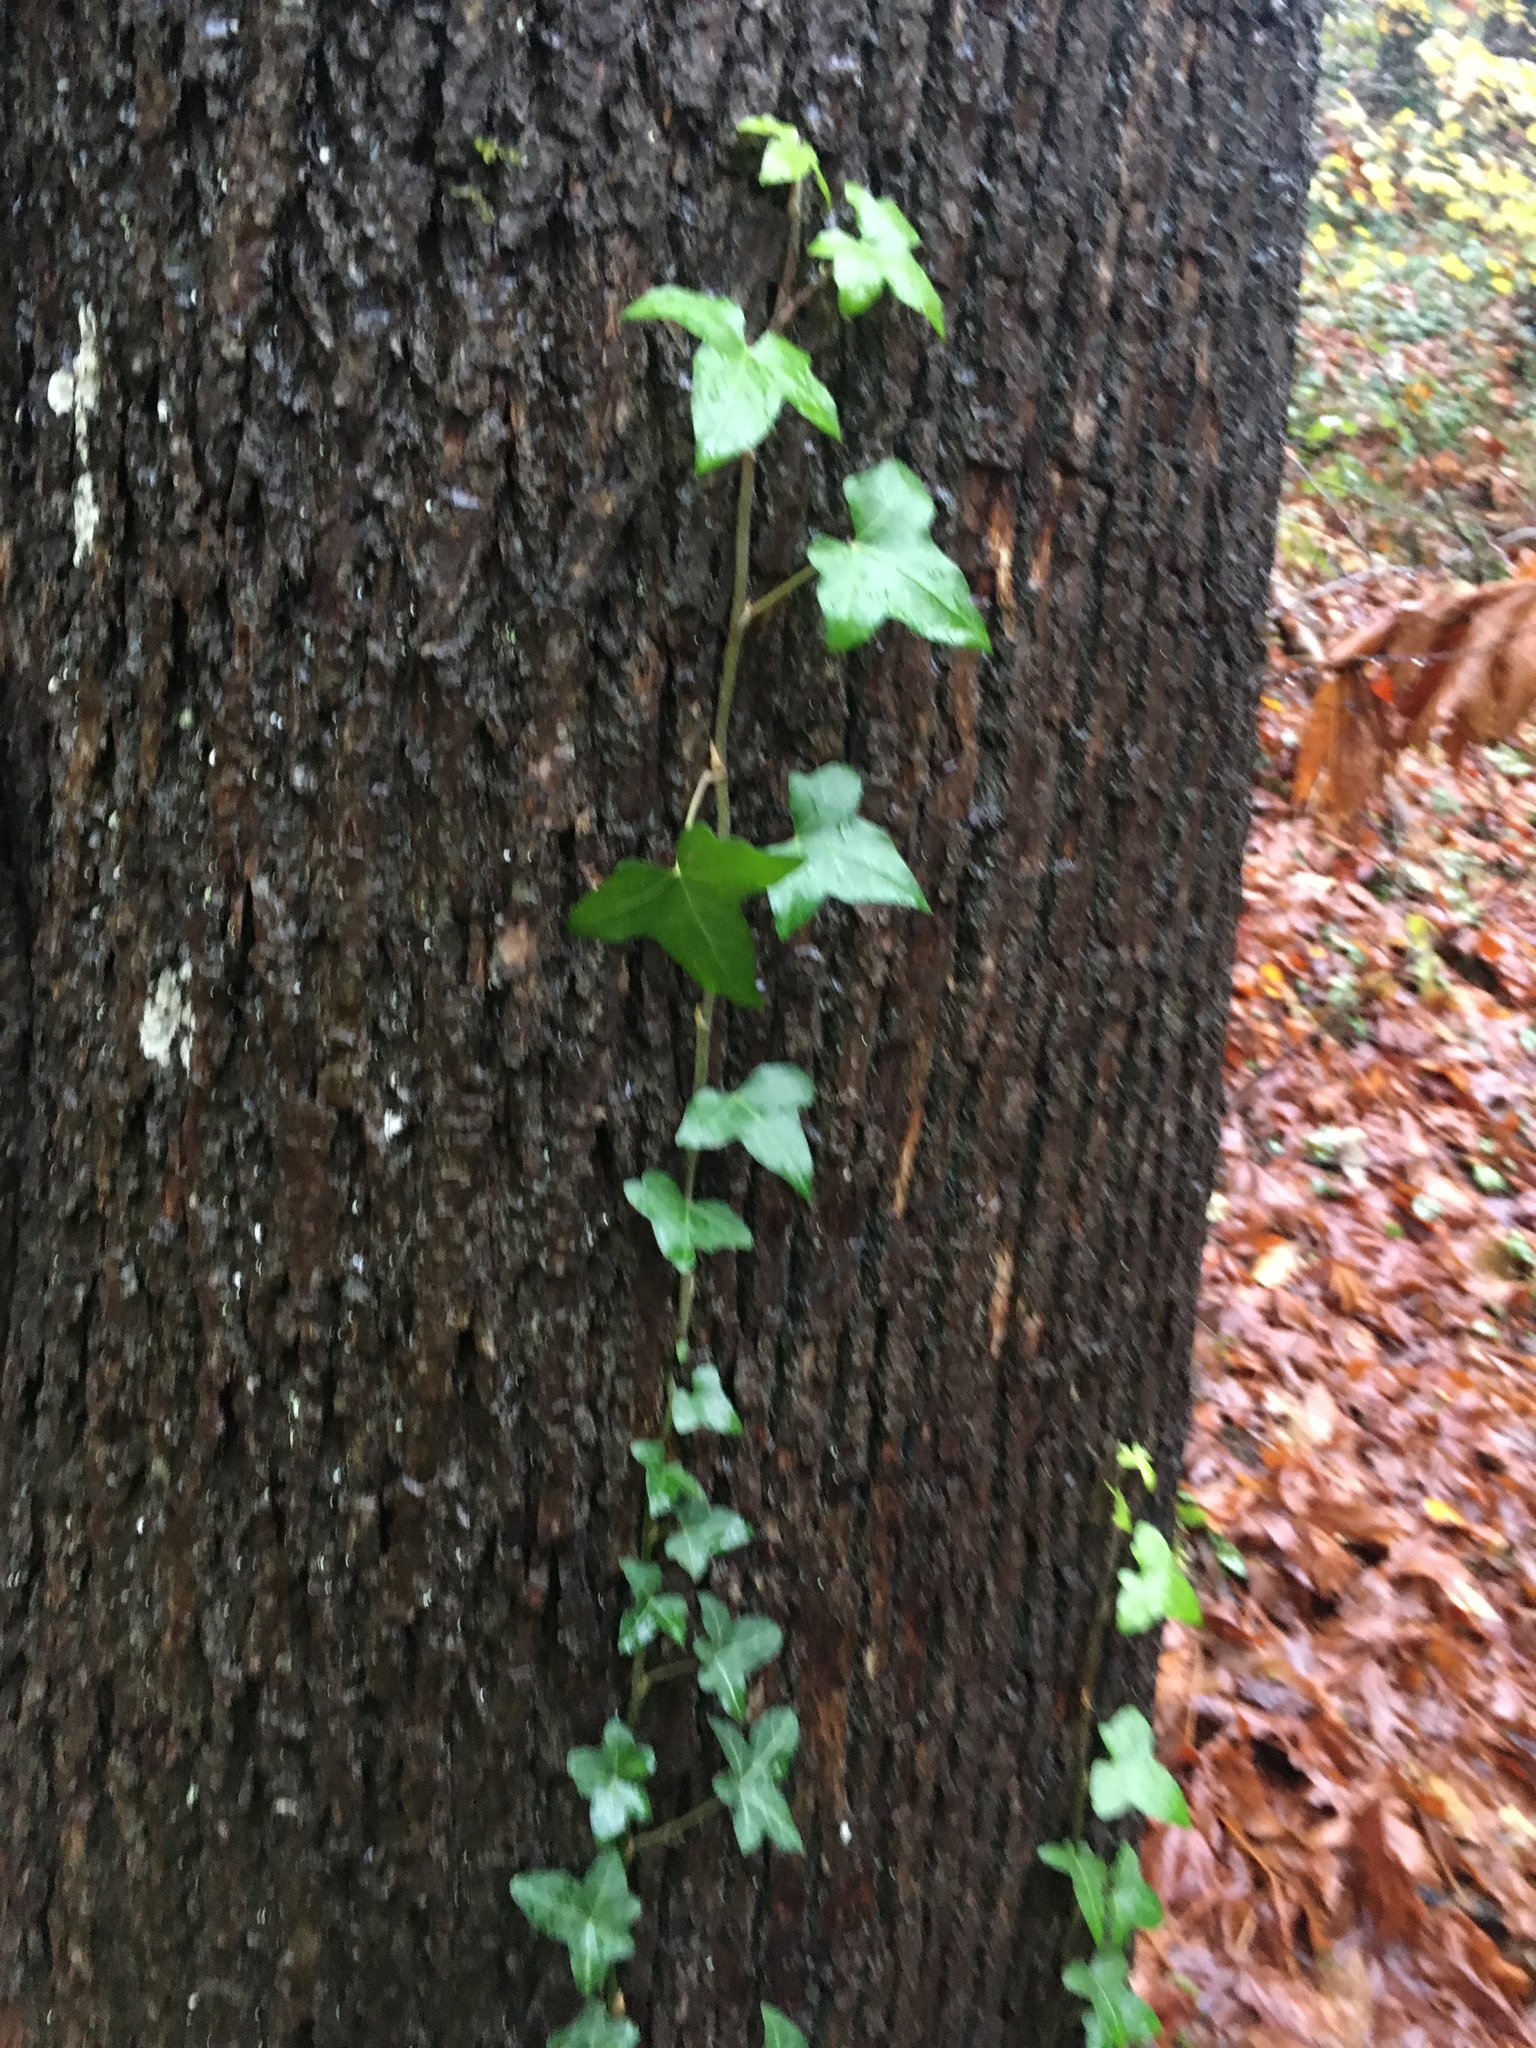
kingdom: Plantae
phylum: Tracheophyta
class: Magnoliopsida
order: Apiales
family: Araliaceae
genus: Hedera
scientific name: Hedera helix
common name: Ivy
